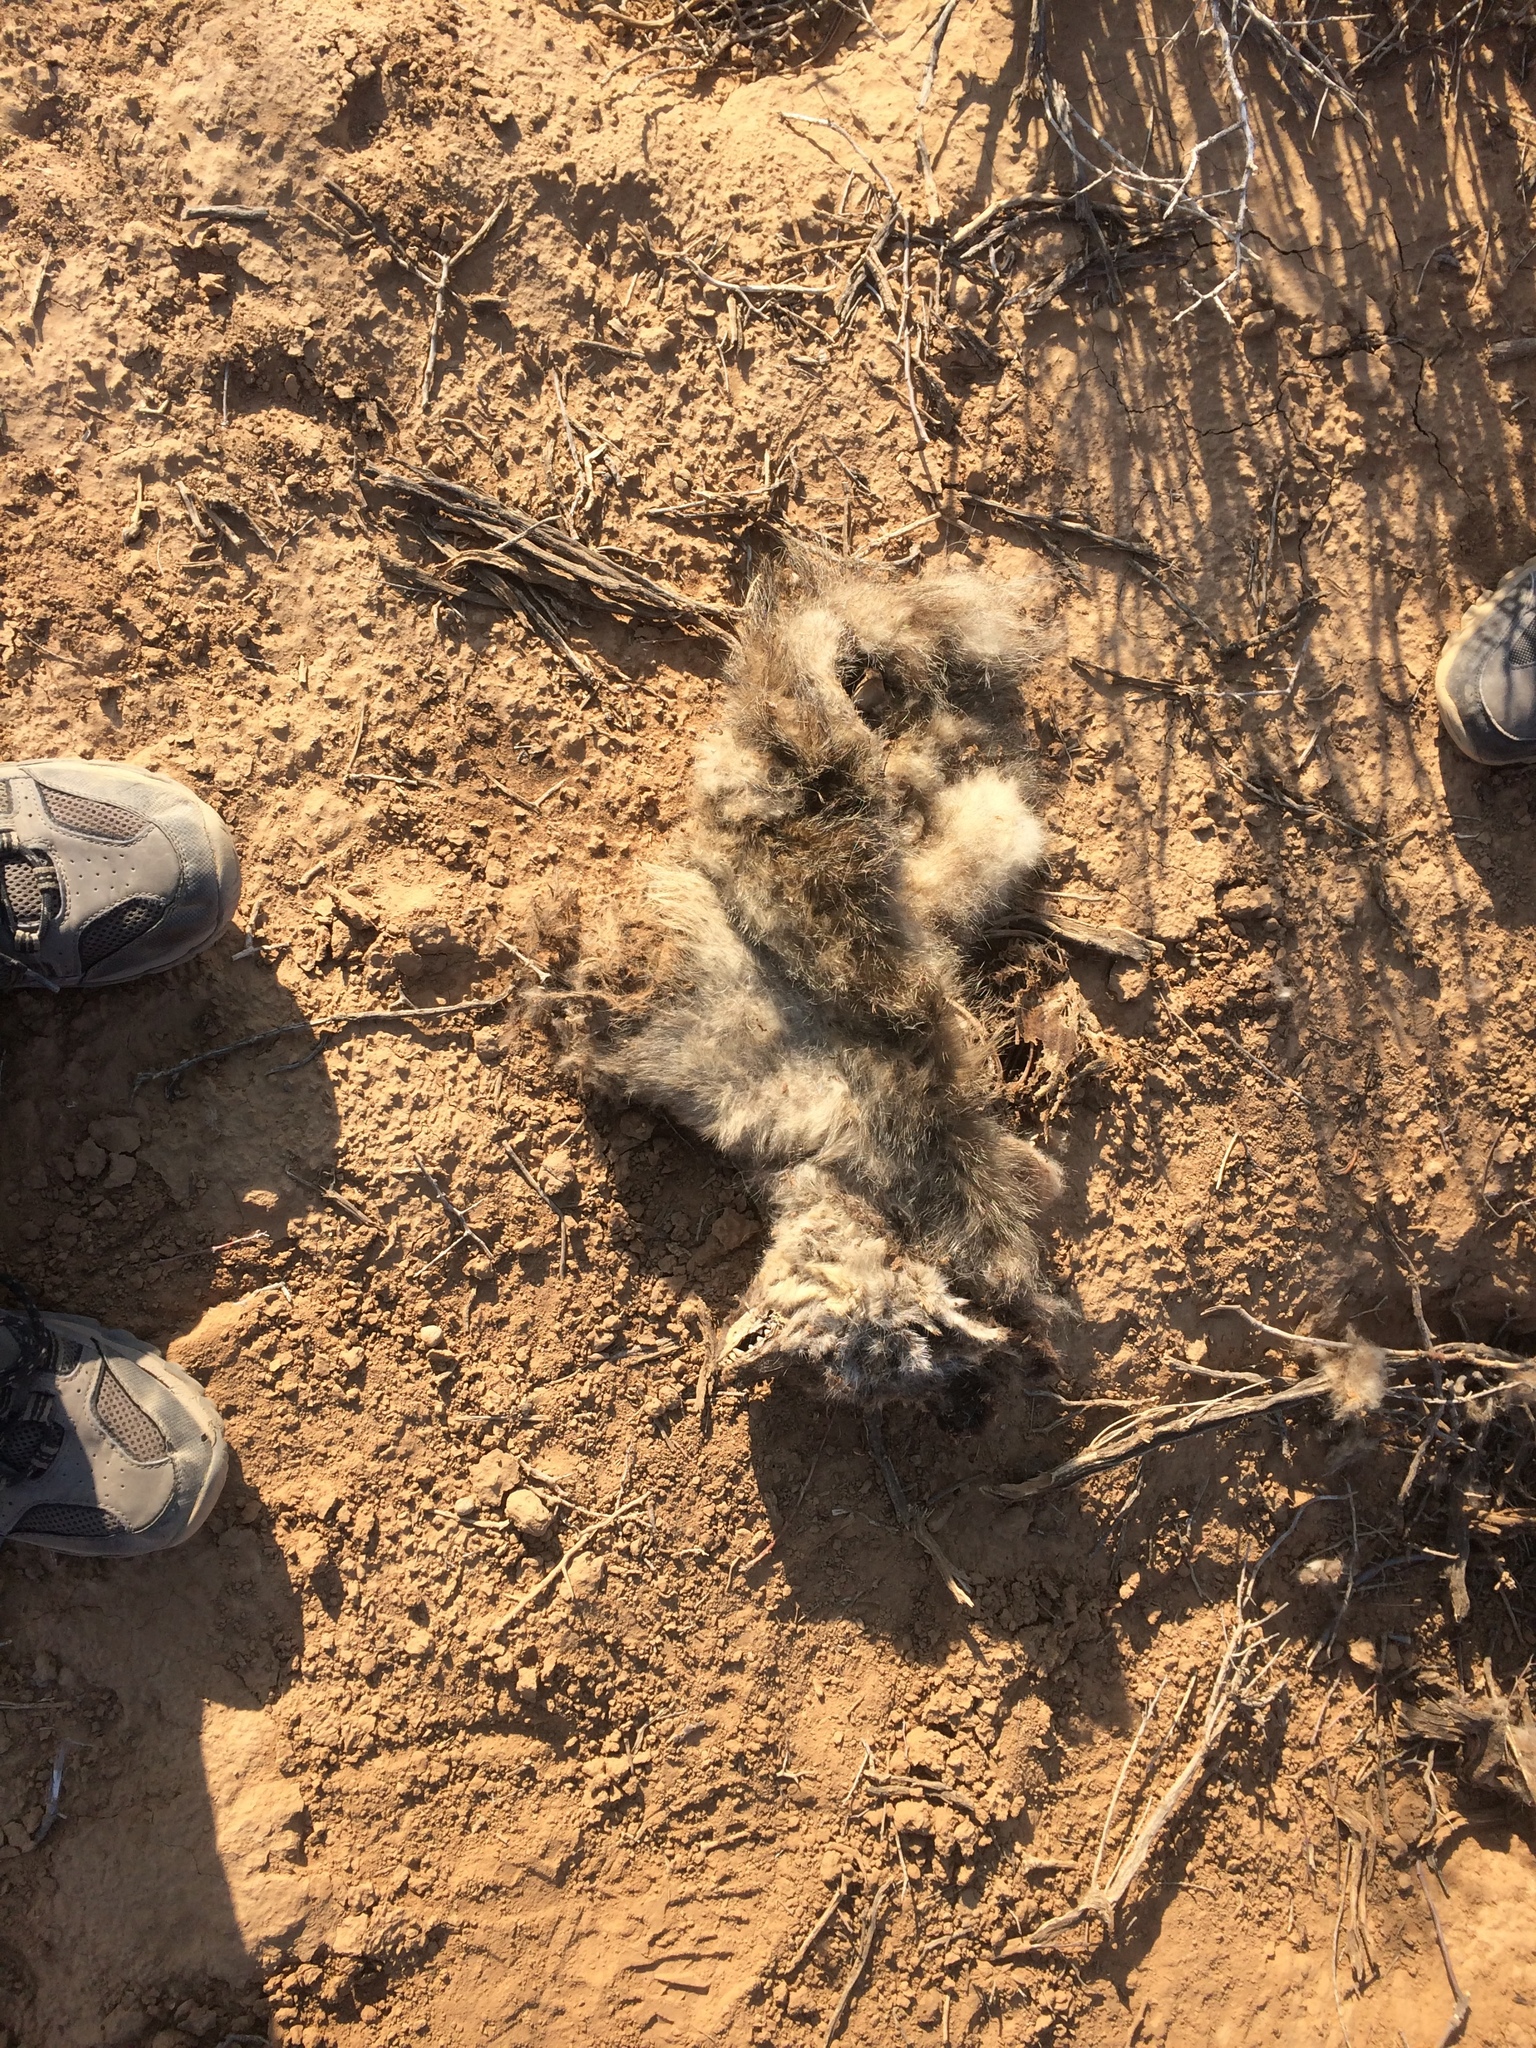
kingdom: Animalia
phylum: Chordata
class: Mammalia
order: Carnivora
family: Hyaenidae
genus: Proteles
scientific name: Proteles cristata
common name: Aardwolf
